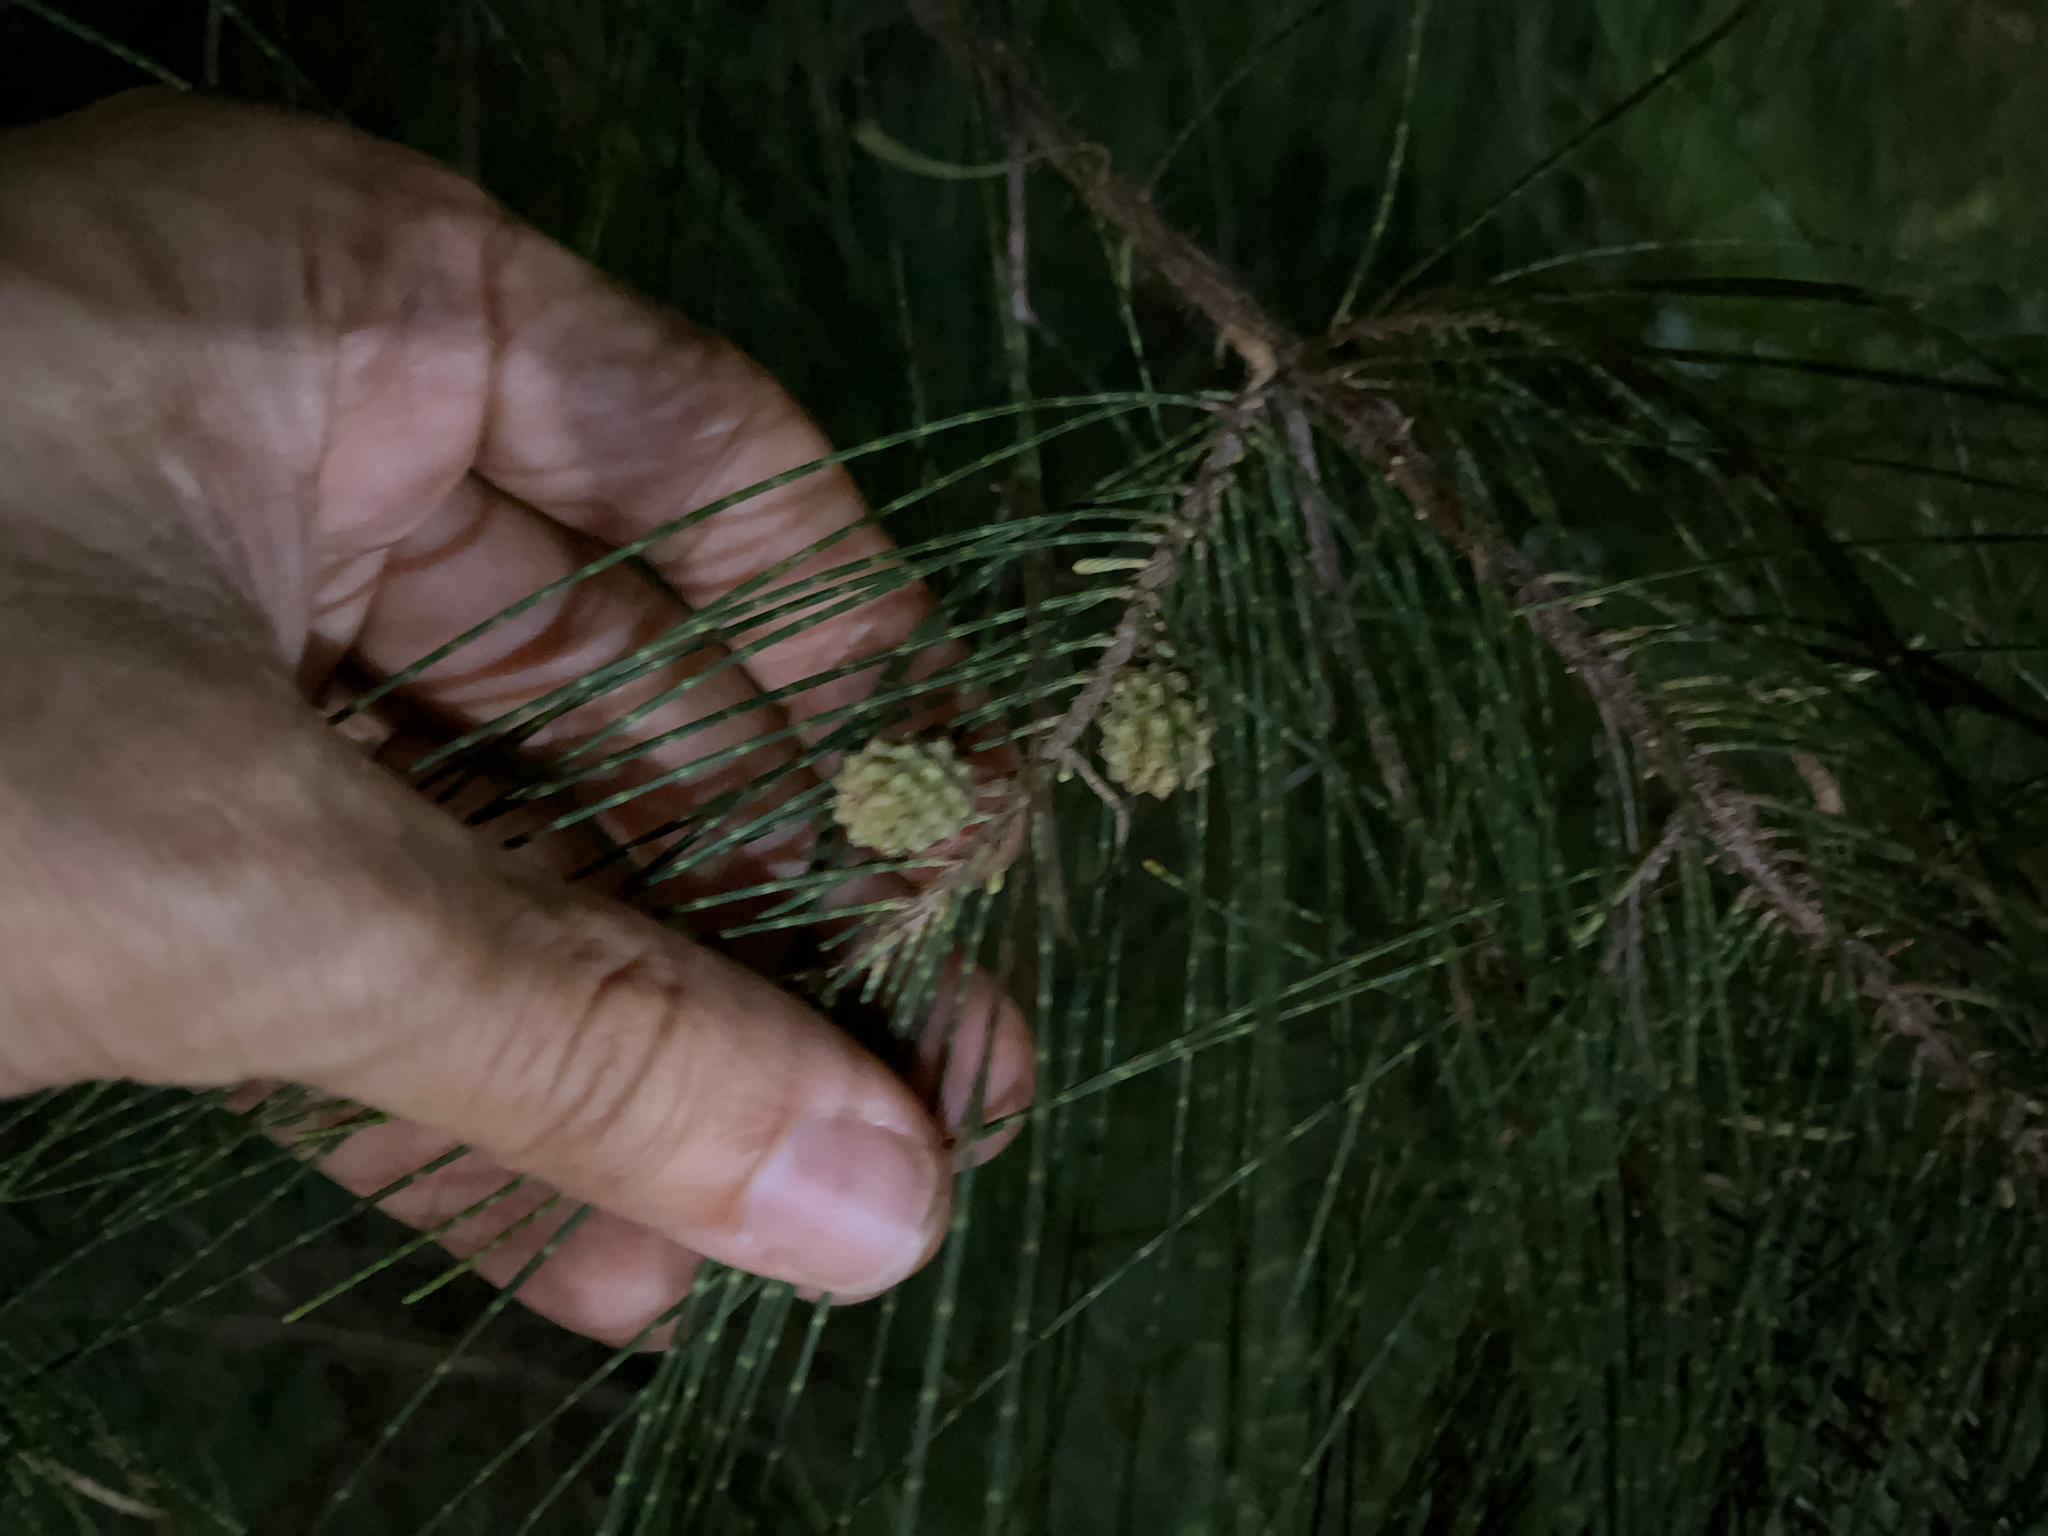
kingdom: Plantae
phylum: Tracheophyta
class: Magnoliopsida
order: Fagales
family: Casuarinaceae
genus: Casuarina
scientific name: Casuarina equisetifolia
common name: Beach sheoak
